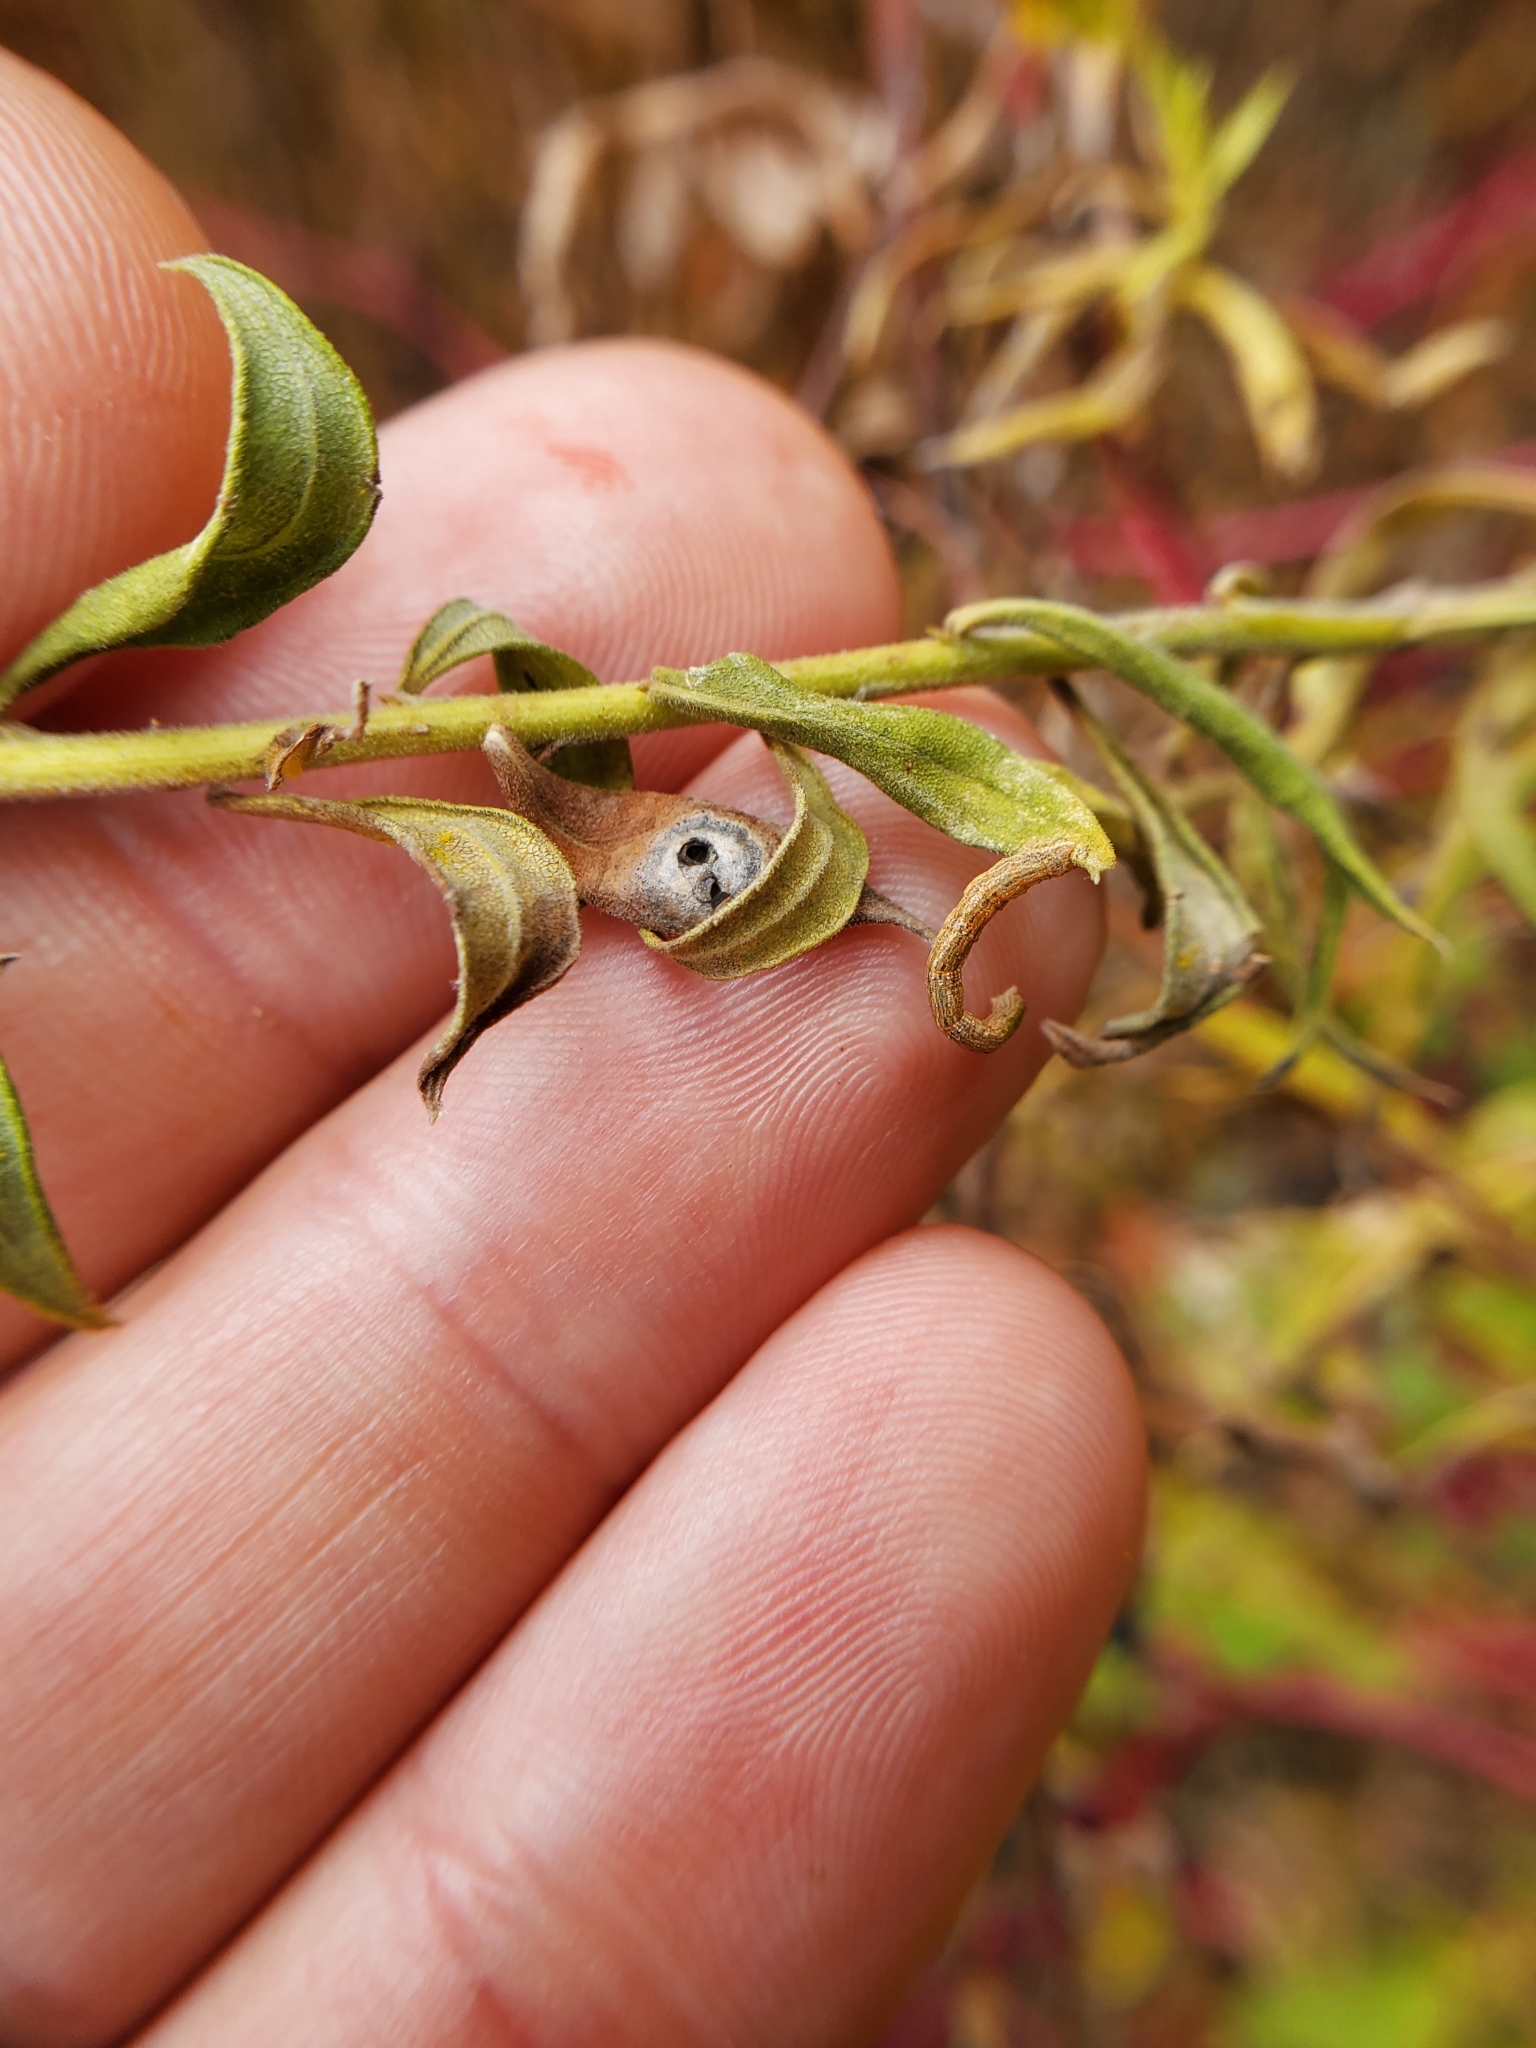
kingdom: Animalia
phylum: Arthropoda
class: Insecta
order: Diptera
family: Cecidomyiidae
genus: Asteromyia
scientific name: Asteromyia carbonifera
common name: Carbonifera goldenrod gall midge
